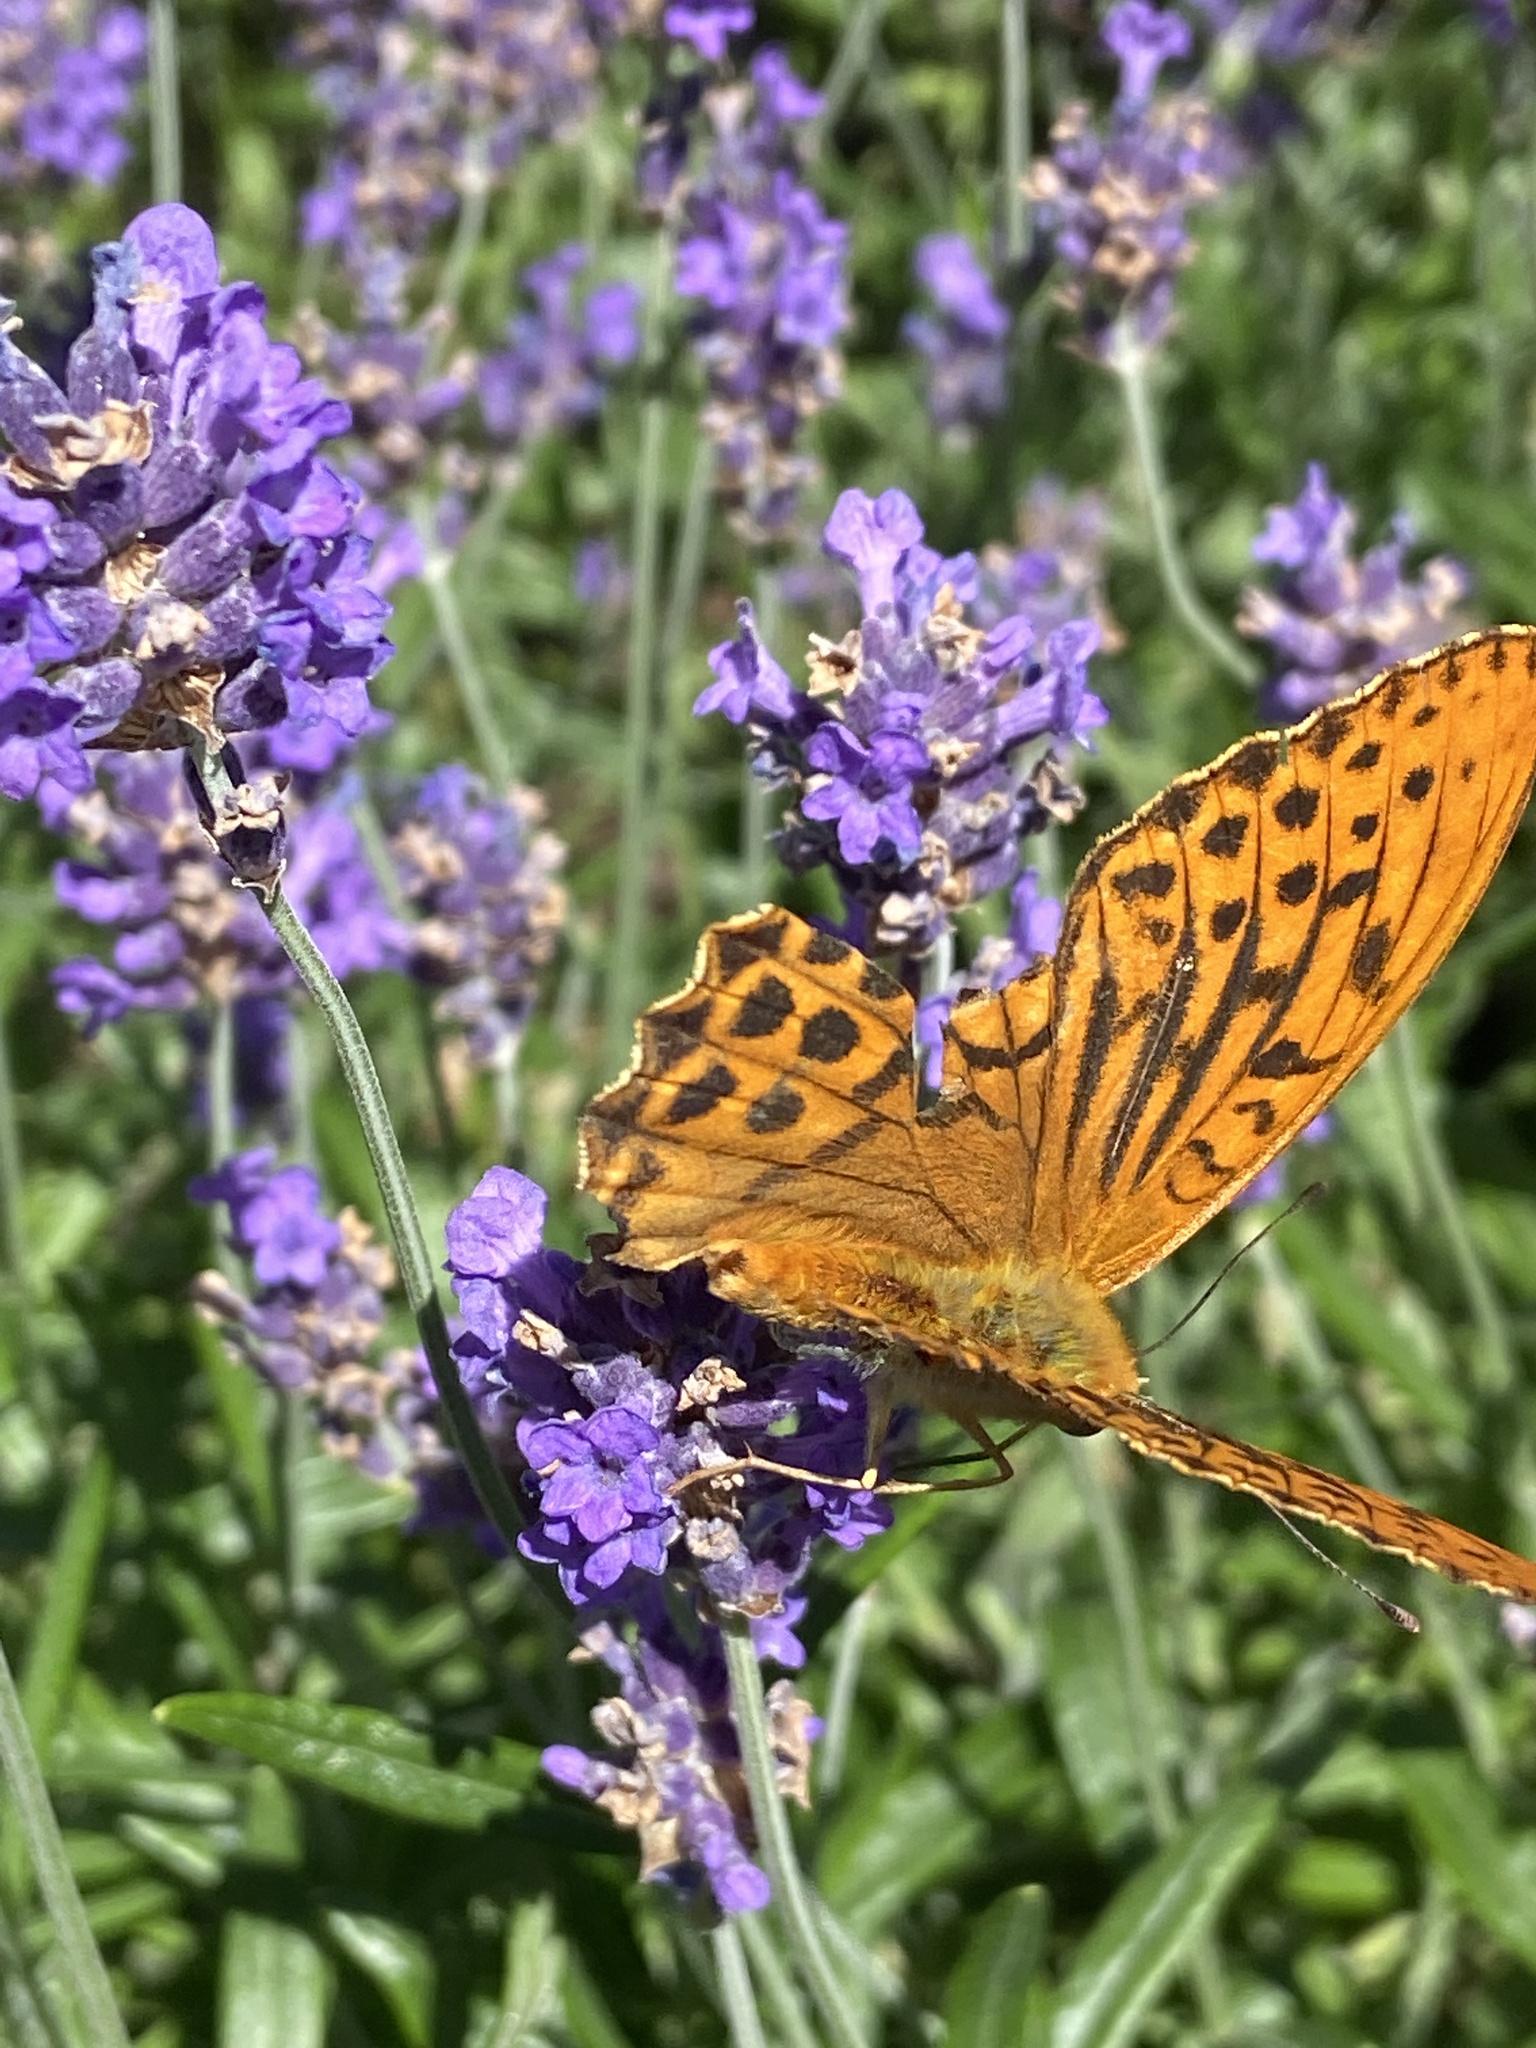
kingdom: Animalia
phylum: Arthropoda
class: Insecta
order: Lepidoptera
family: Nymphalidae
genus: Argynnis
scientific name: Argynnis paphia
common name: Silver-washed fritillary
